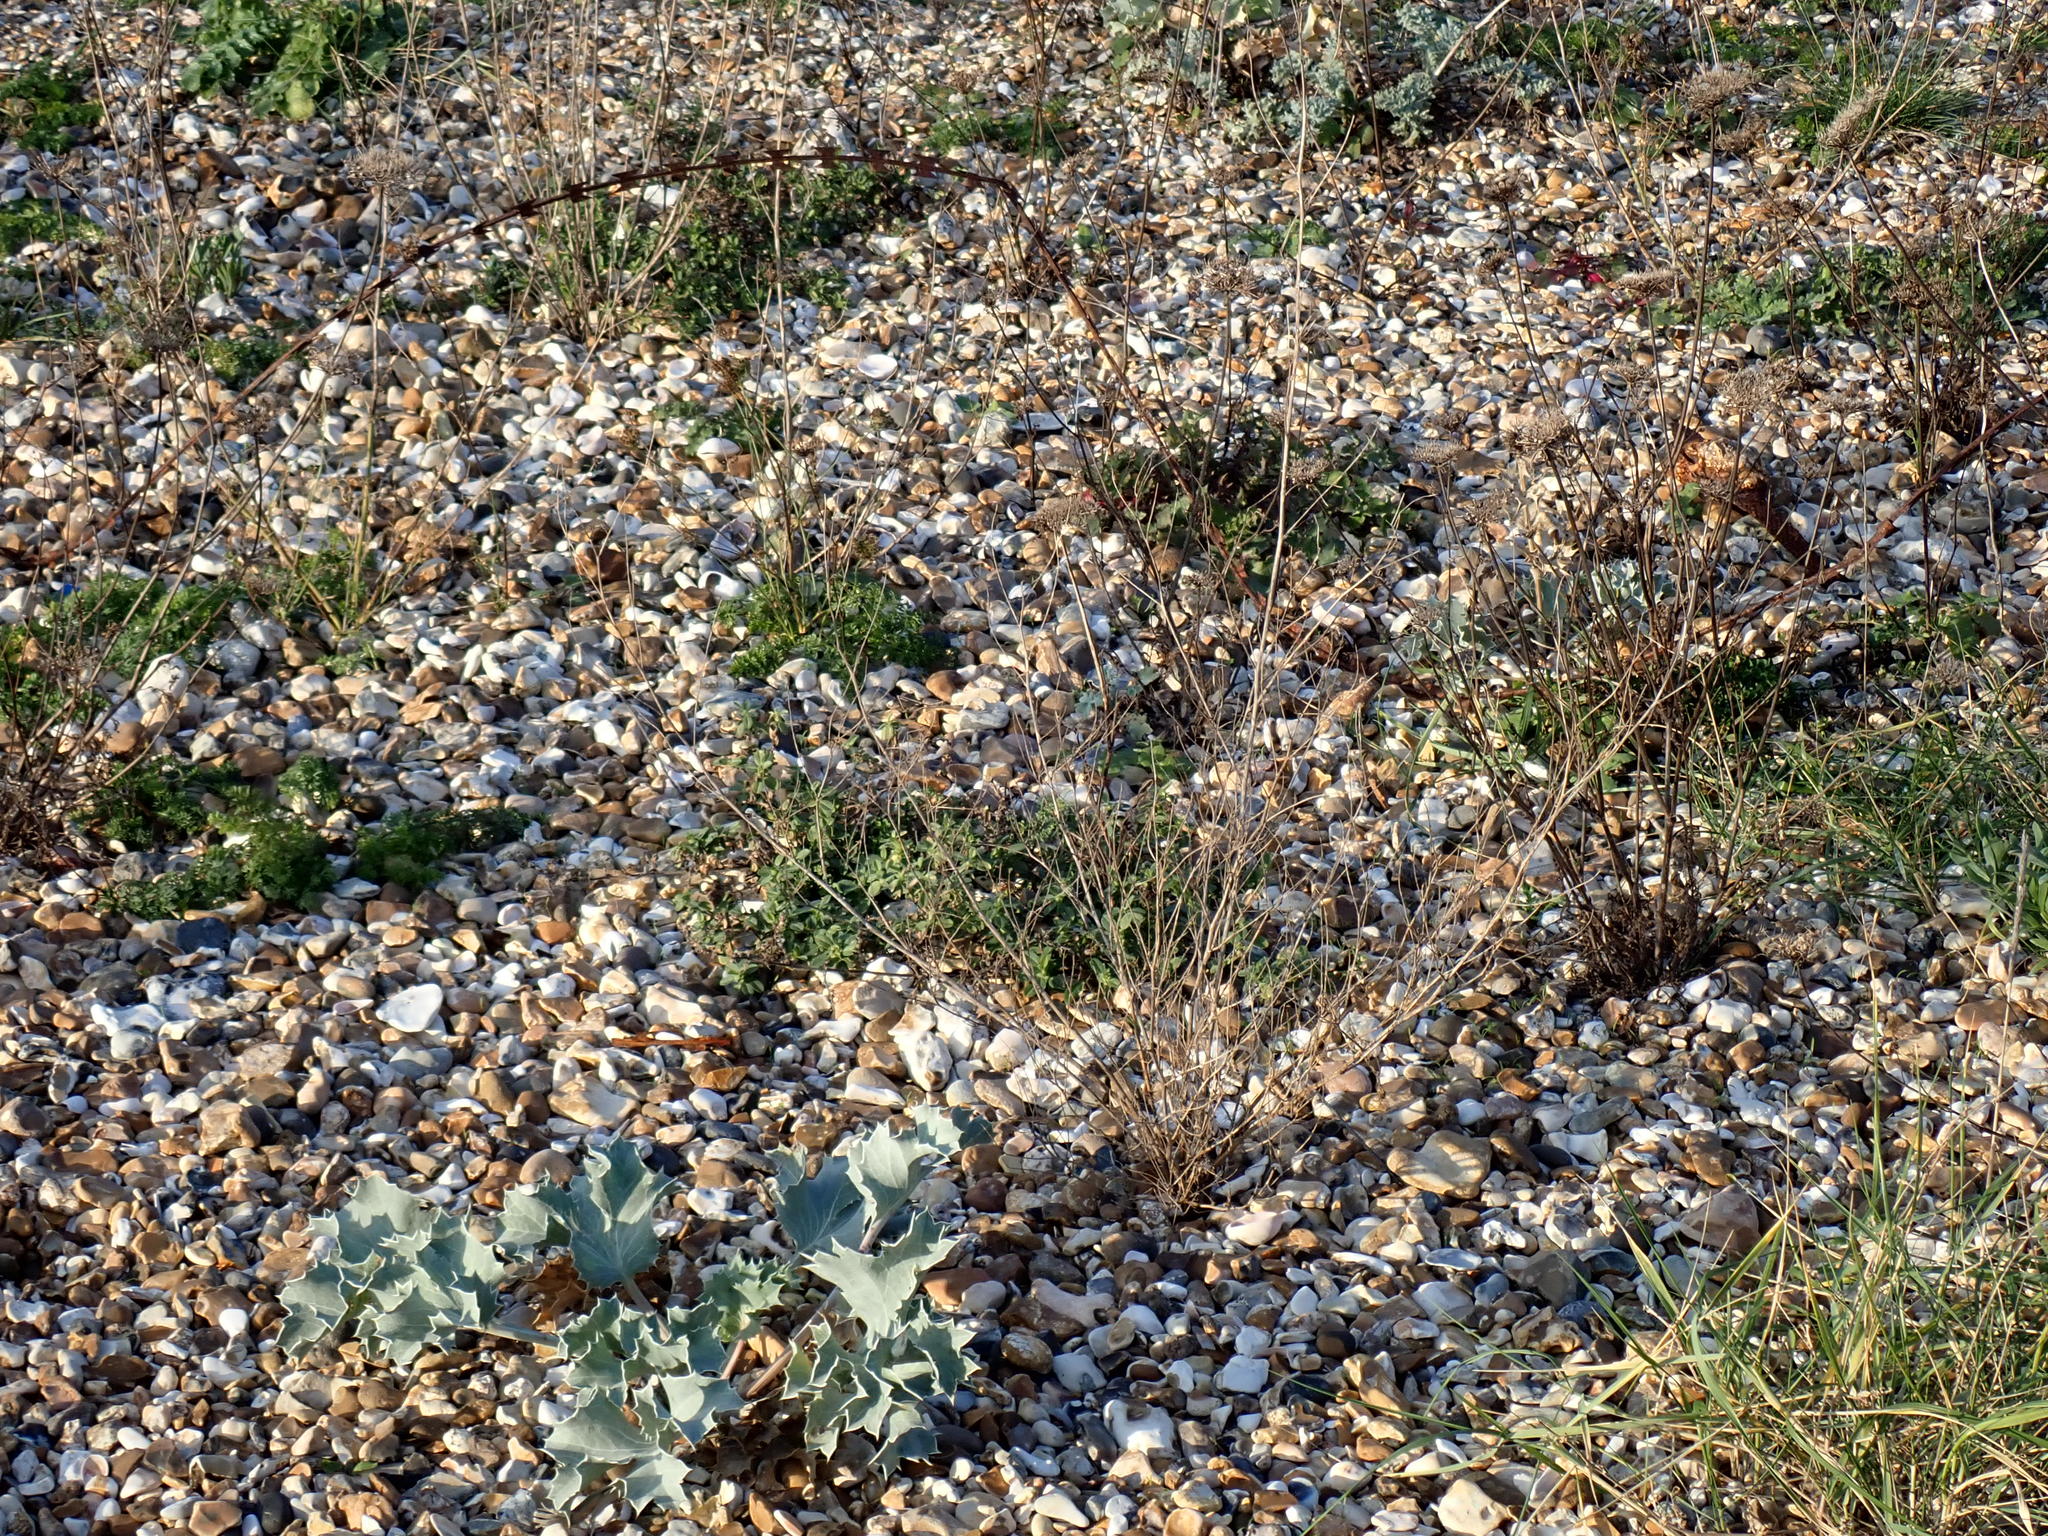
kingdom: Plantae
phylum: Tracheophyta
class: Magnoliopsida
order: Apiales
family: Apiaceae
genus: Eryngium
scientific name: Eryngium maritimum
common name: Sea-holly
